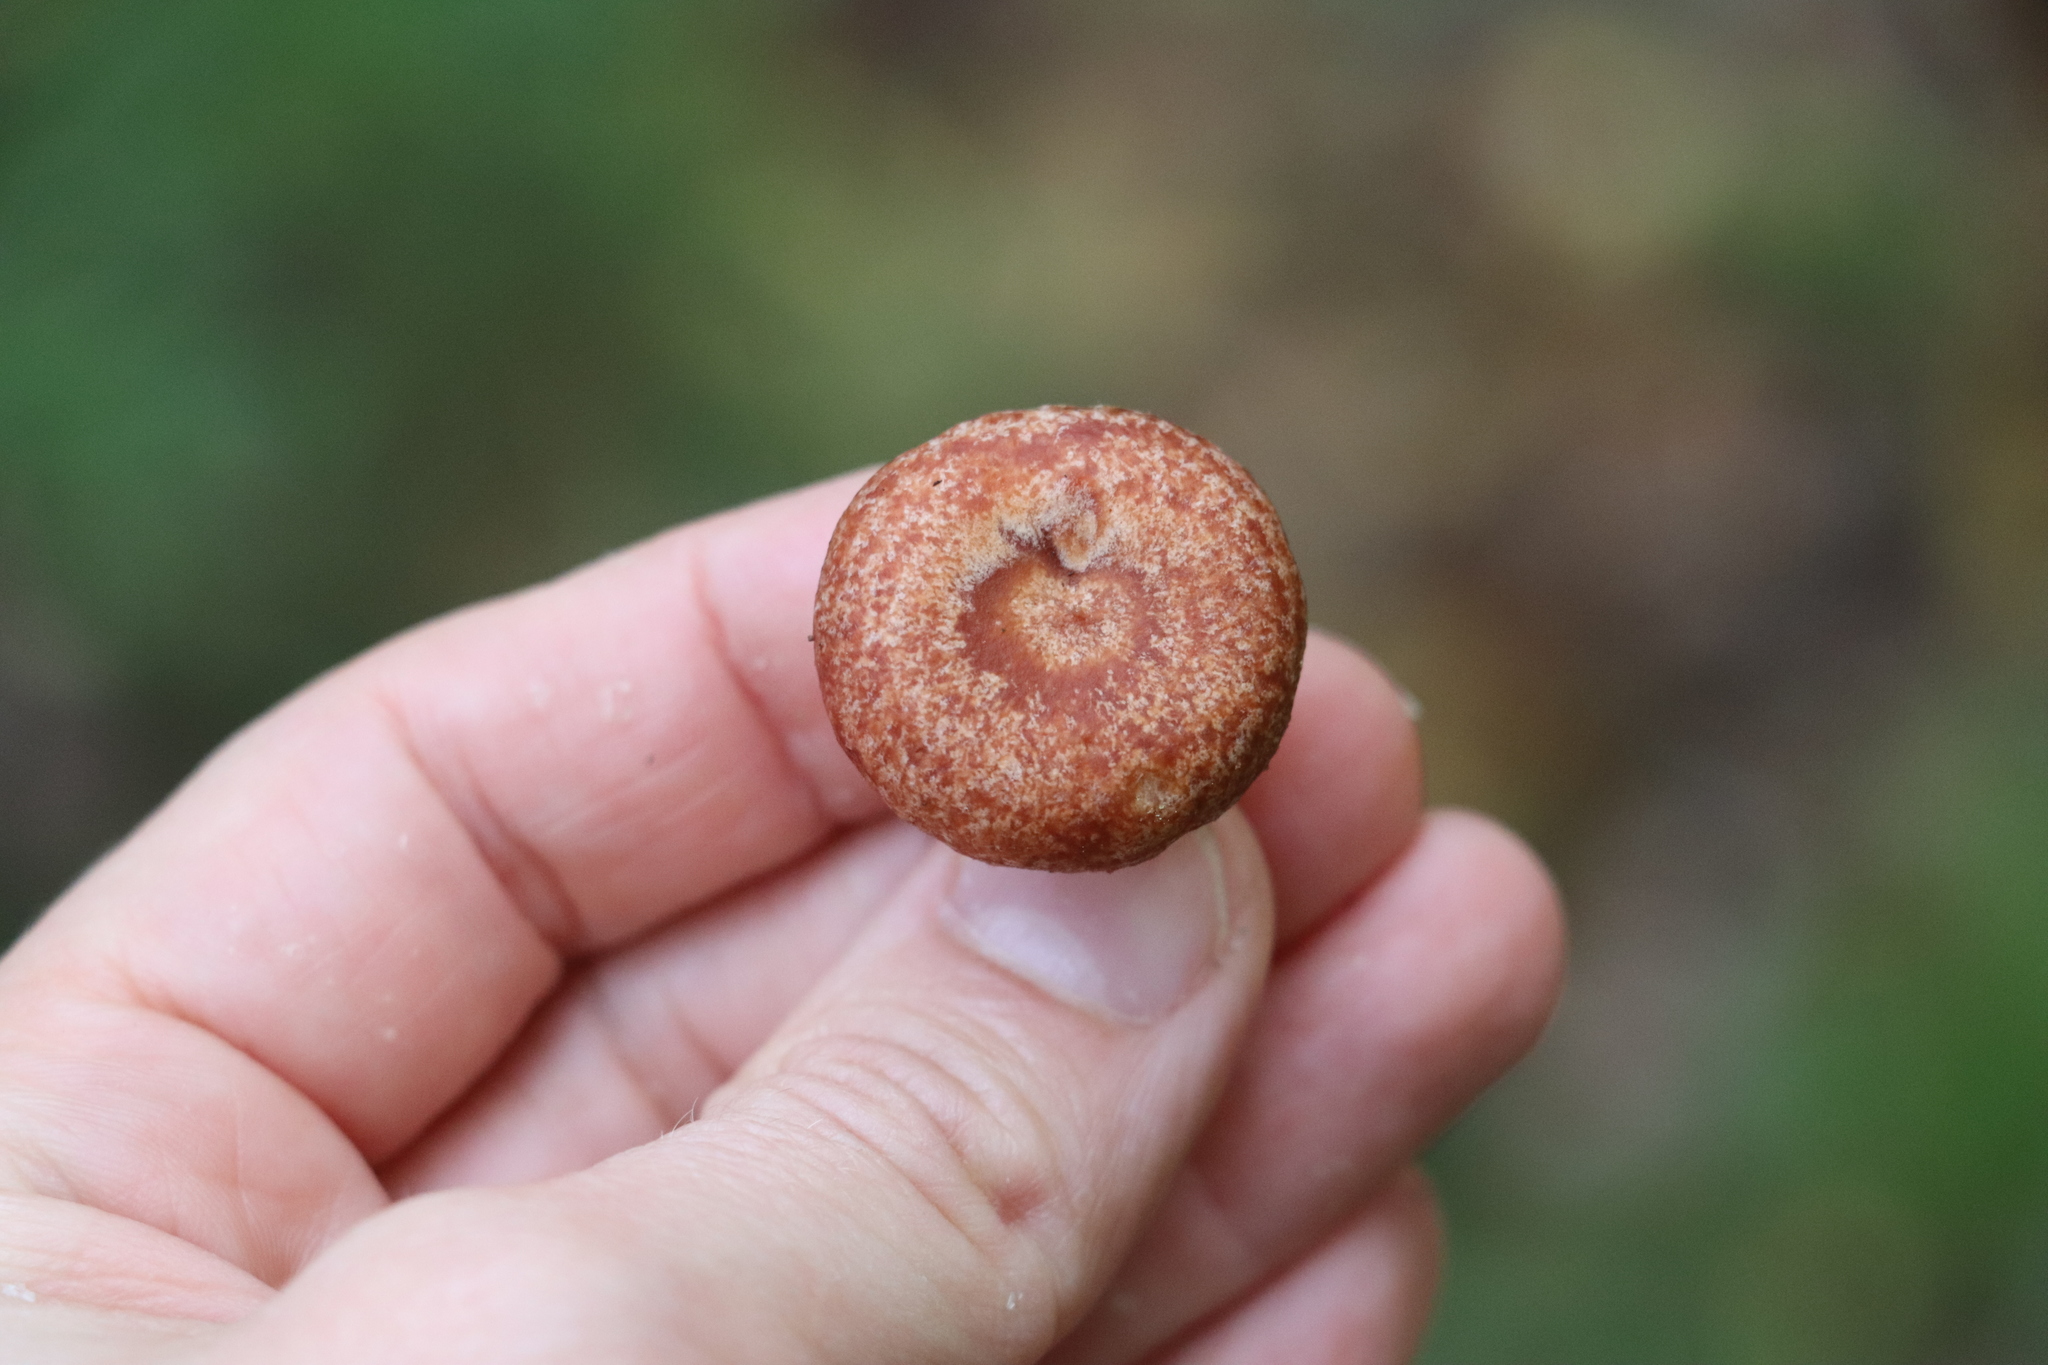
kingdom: Fungi
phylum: Basidiomycota
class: Agaricomycetes
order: Russulales
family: Russulaceae
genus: Lactarius
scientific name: Lactarius torminosus
